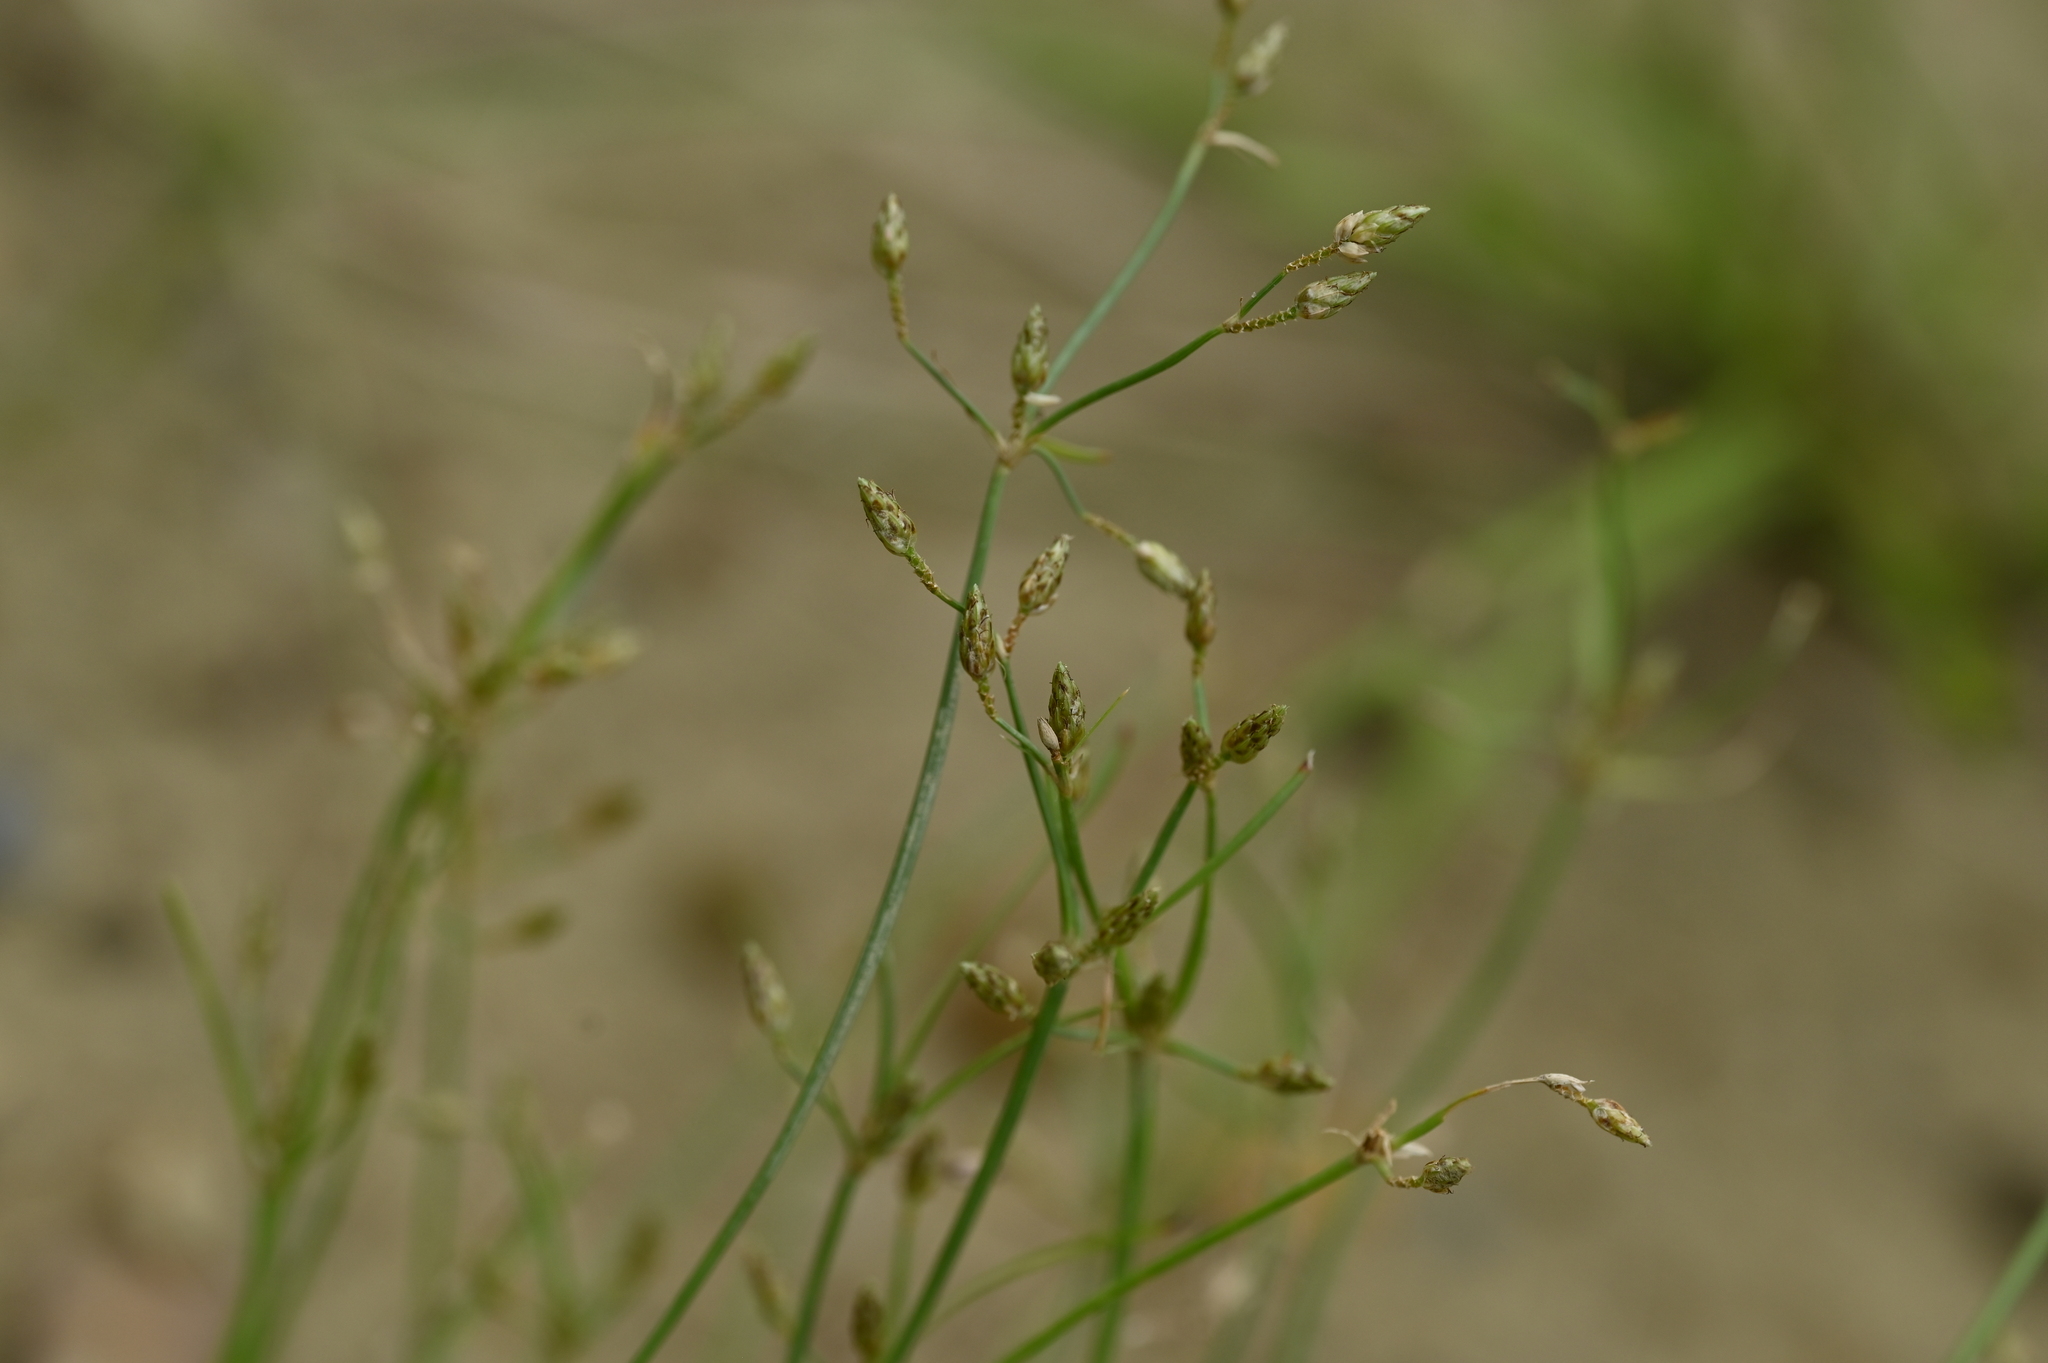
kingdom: Plantae
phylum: Tracheophyta
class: Liliopsida
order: Poales
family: Cyperaceae
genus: Fimbristylis
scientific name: Fimbristylis shimadana
